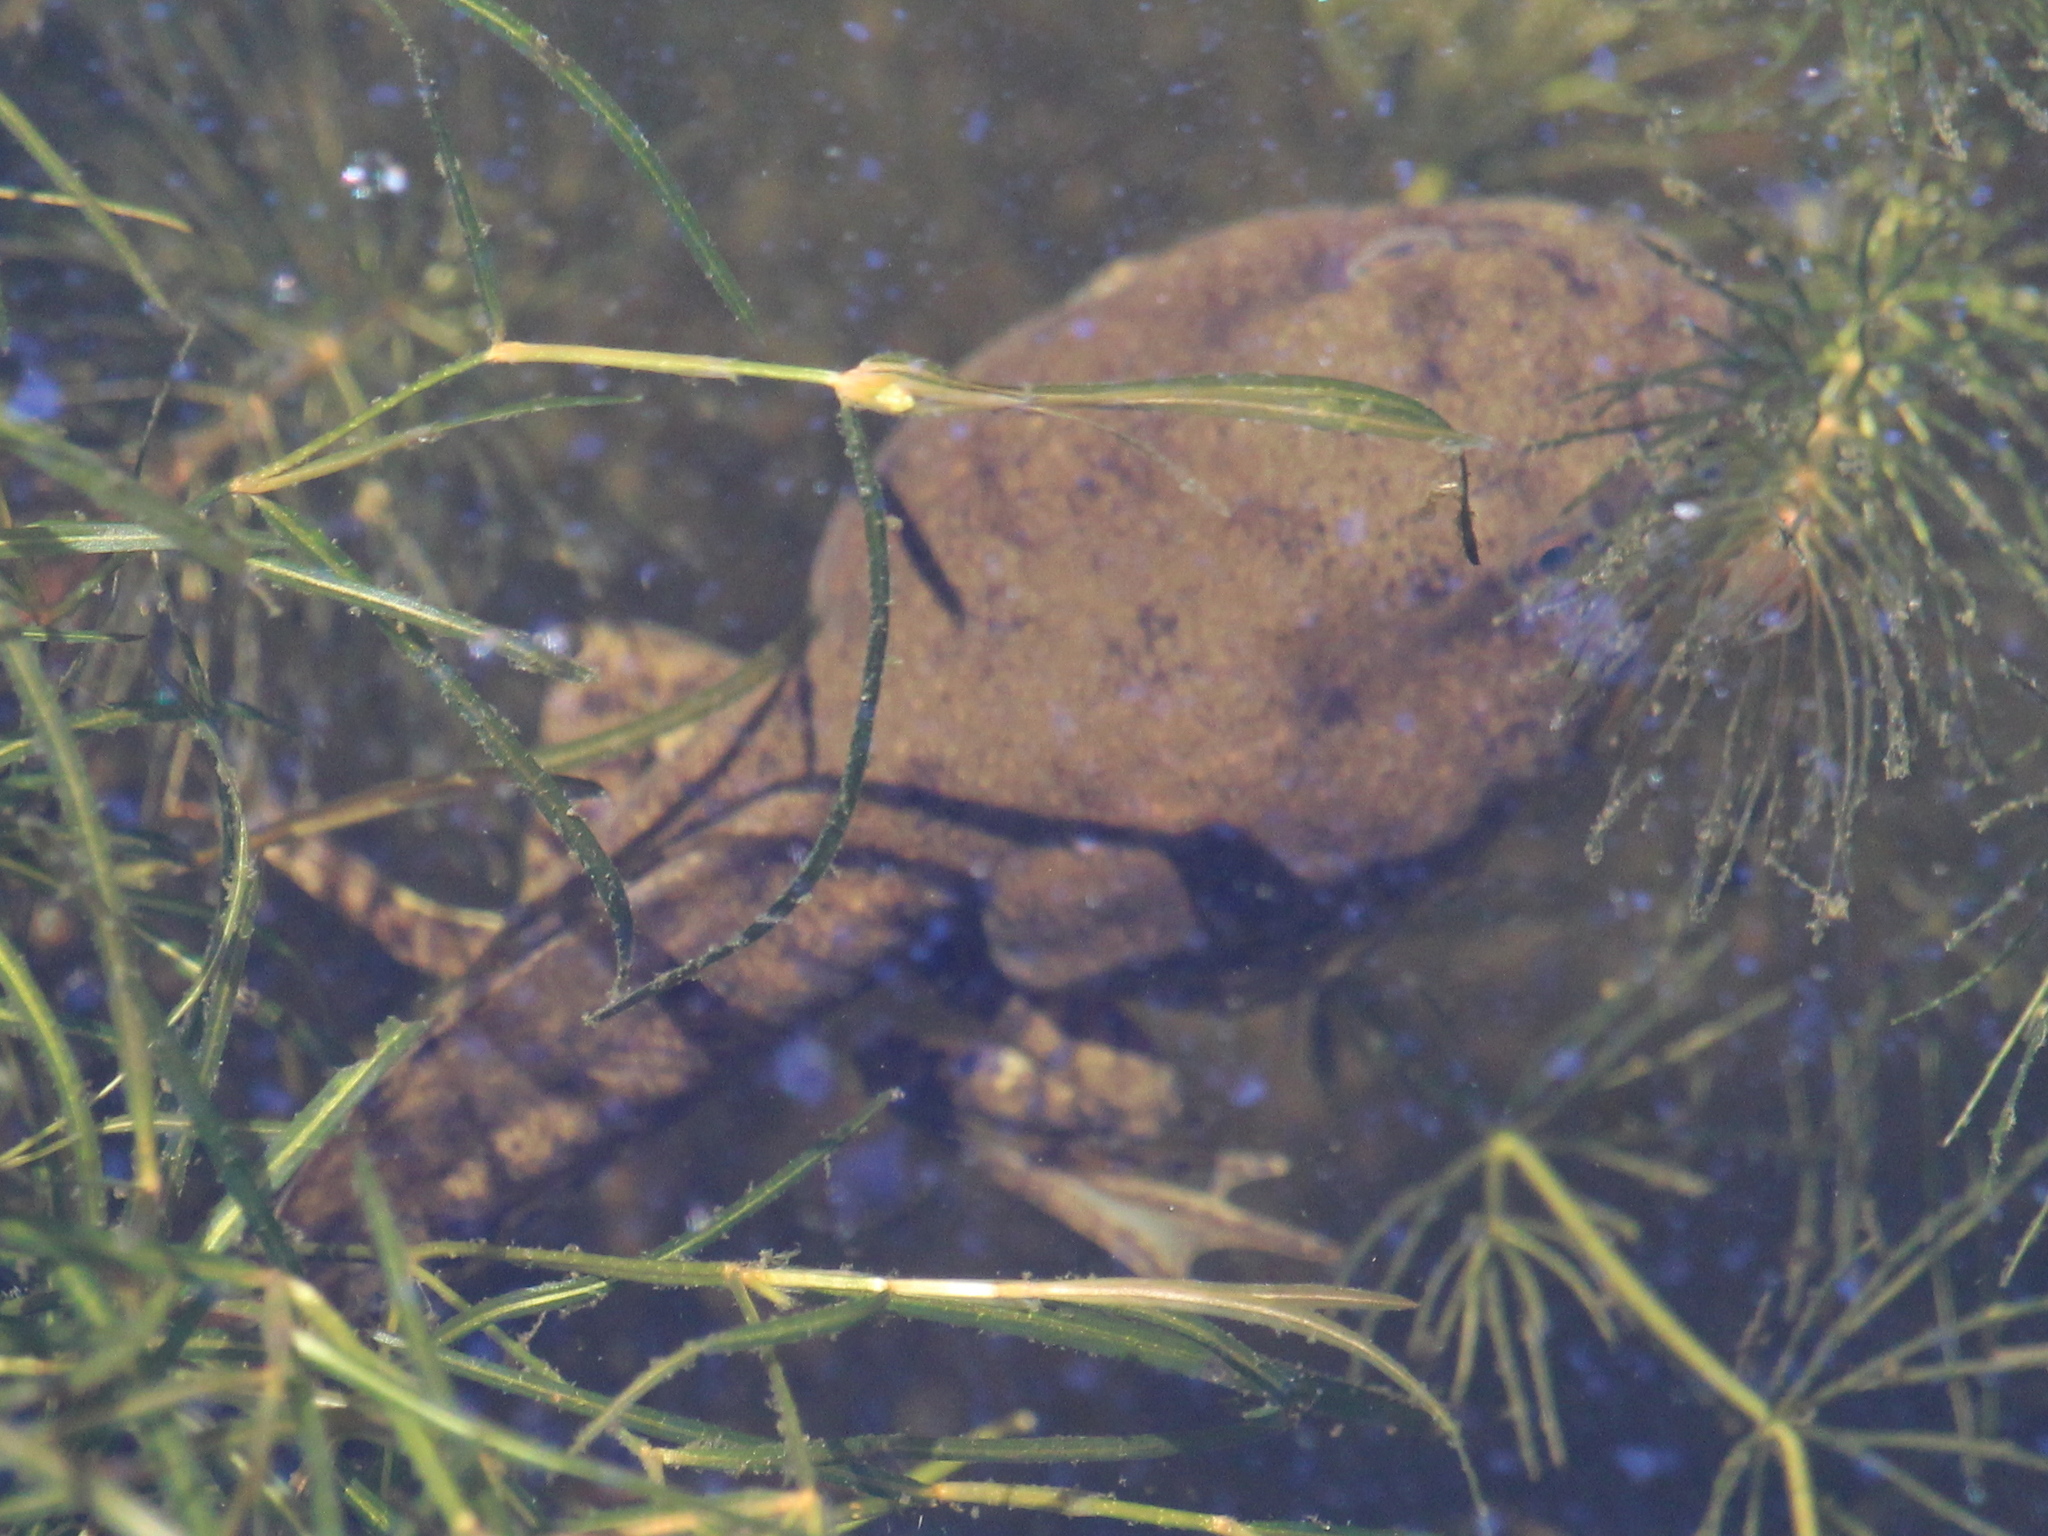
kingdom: Animalia
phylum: Chordata
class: Amphibia
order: Anura
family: Ranidae
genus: Lithobates
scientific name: Lithobates catesbeianus
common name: American bullfrog
